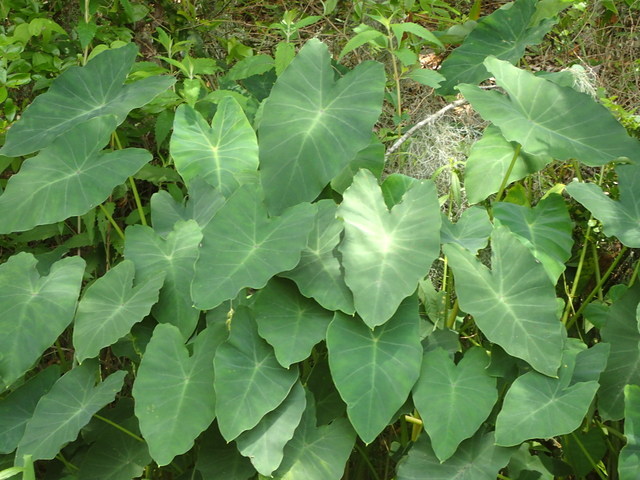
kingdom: Plantae
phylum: Tracheophyta
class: Liliopsida
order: Alismatales
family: Araceae
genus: Colocasia
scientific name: Colocasia esculenta
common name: Taro
